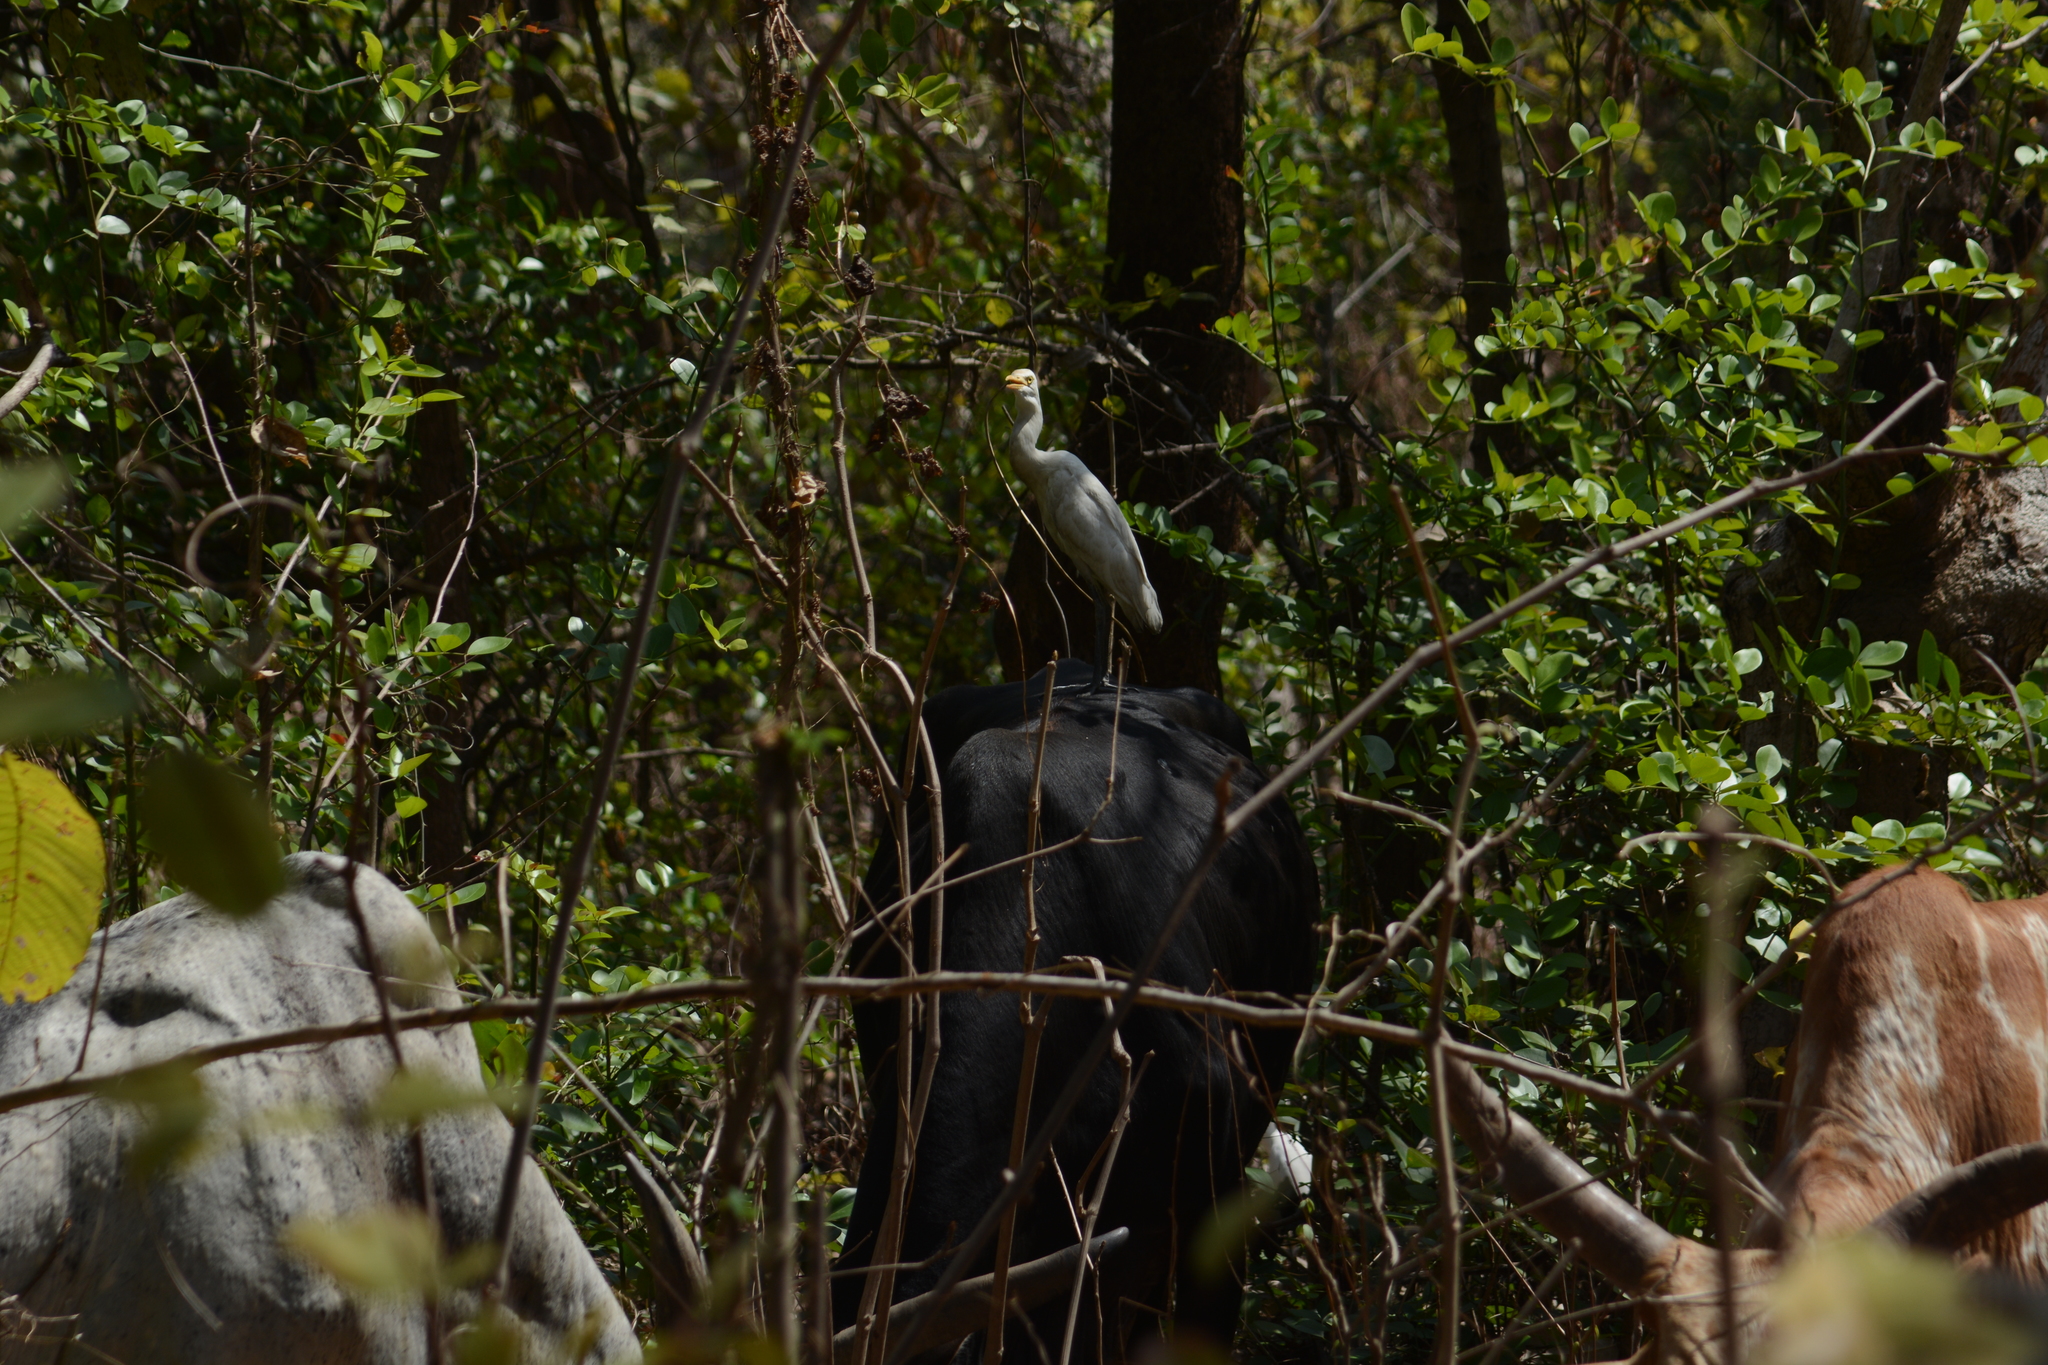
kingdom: Animalia
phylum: Chordata
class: Aves
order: Pelecaniformes
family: Ardeidae
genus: Bubulcus
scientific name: Bubulcus coromandus
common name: Eastern cattle egret
